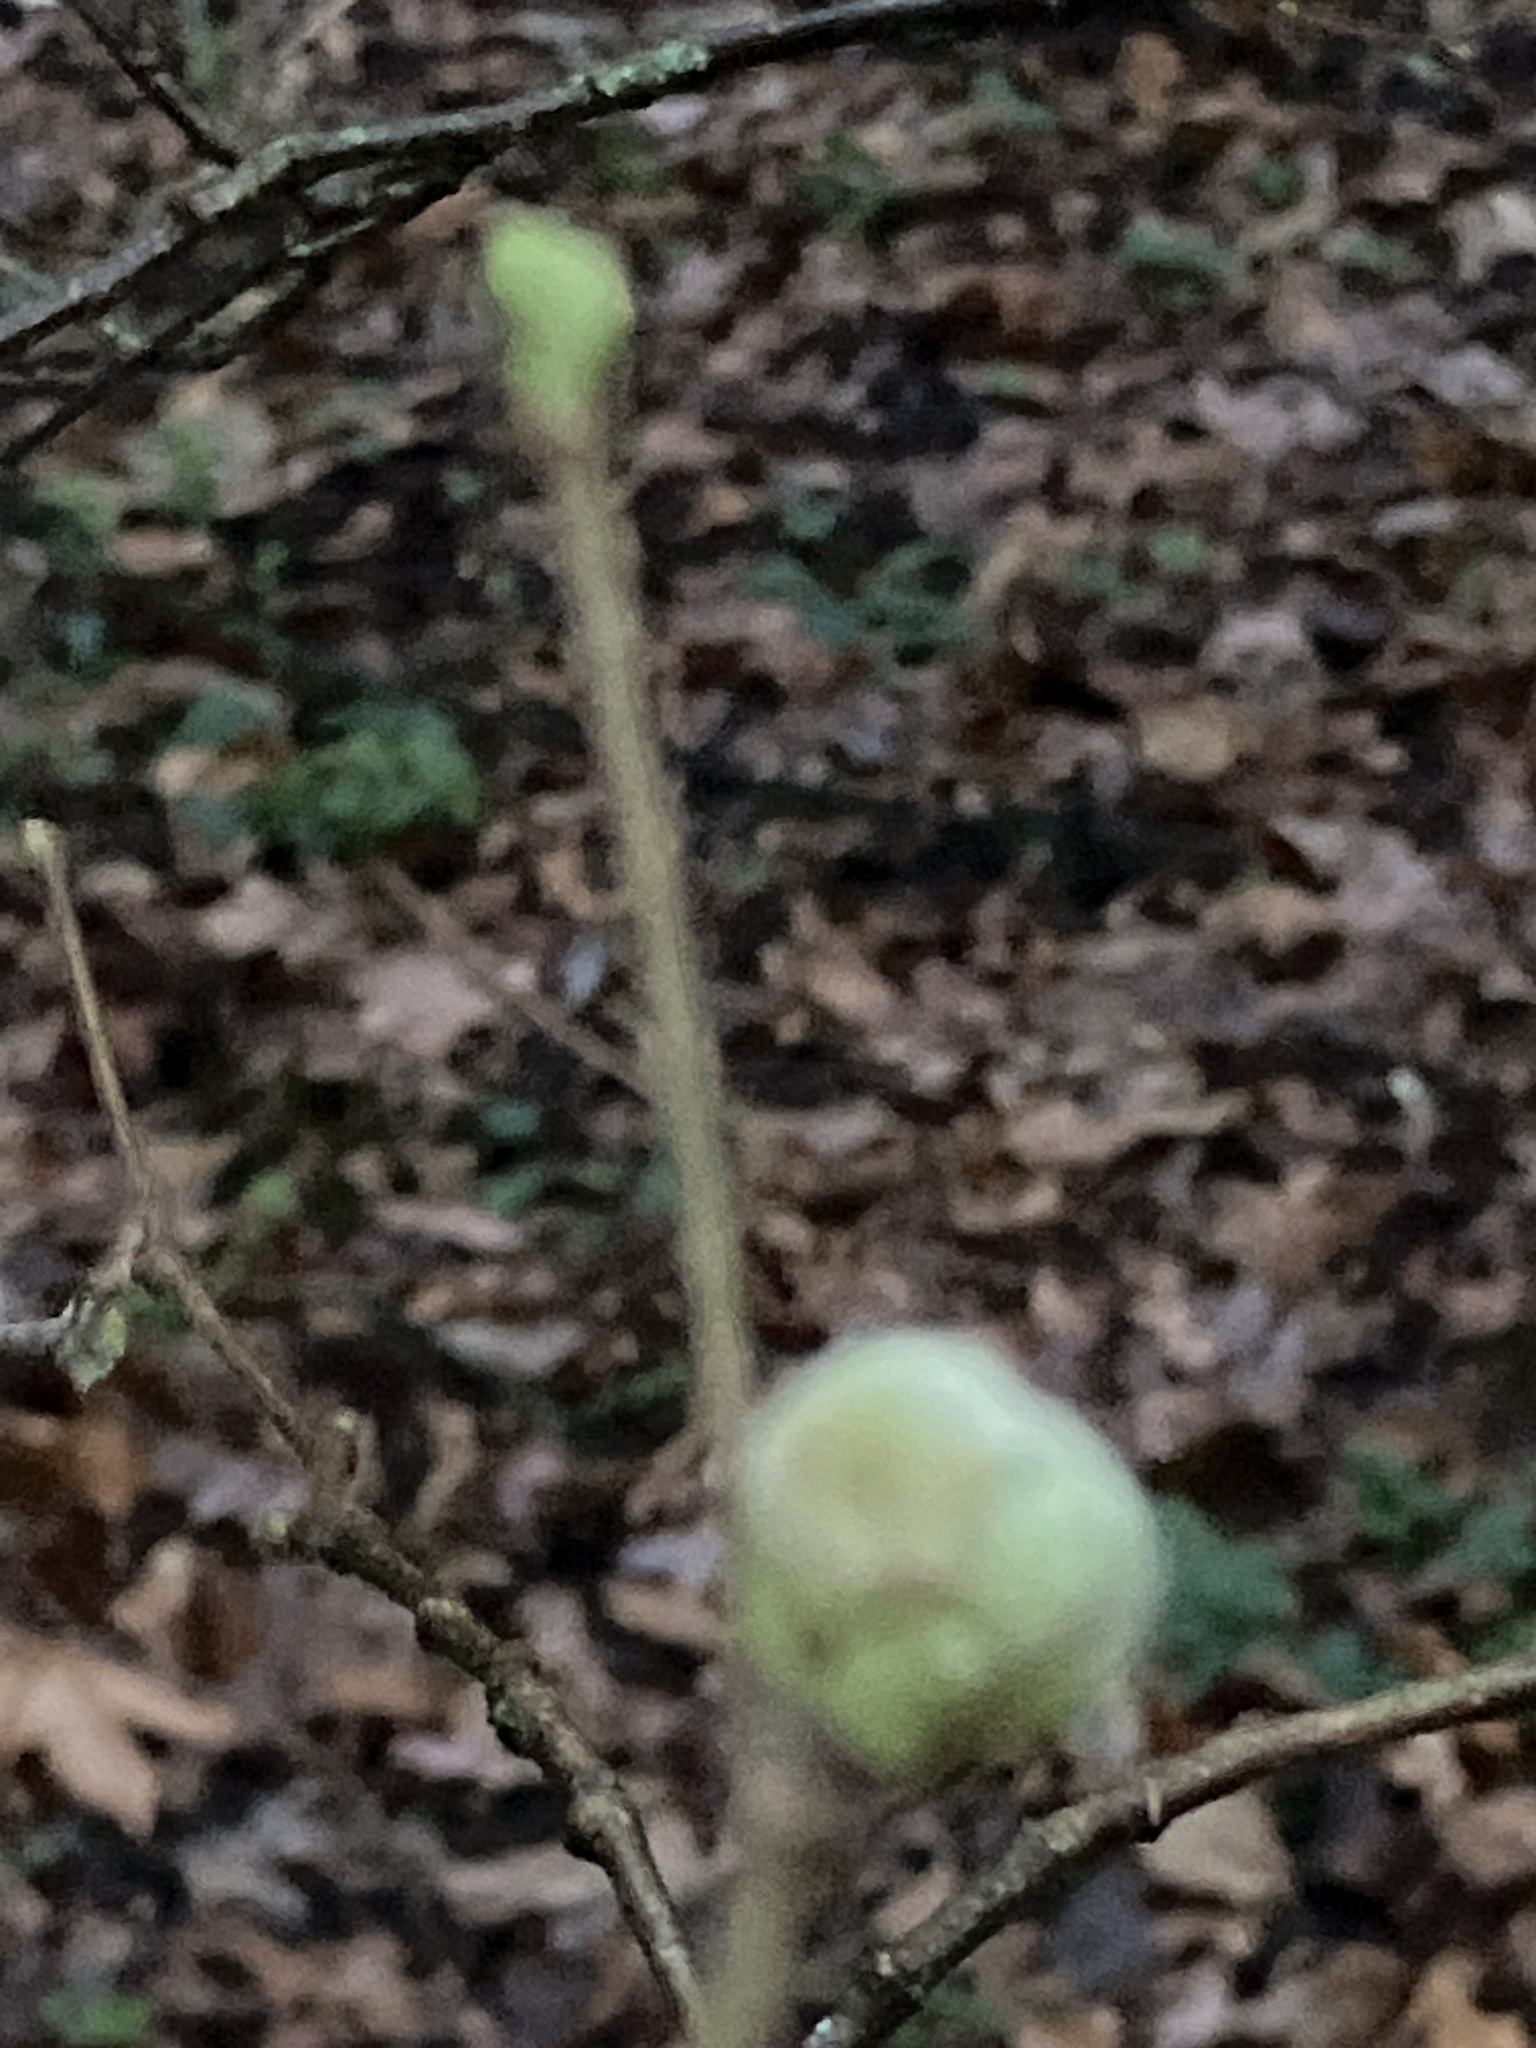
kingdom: Animalia
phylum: Arthropoda
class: Arachnida
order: Trombidiformes
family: Phytoptidae
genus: Phytoptus
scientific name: Phytoptus avellanae
